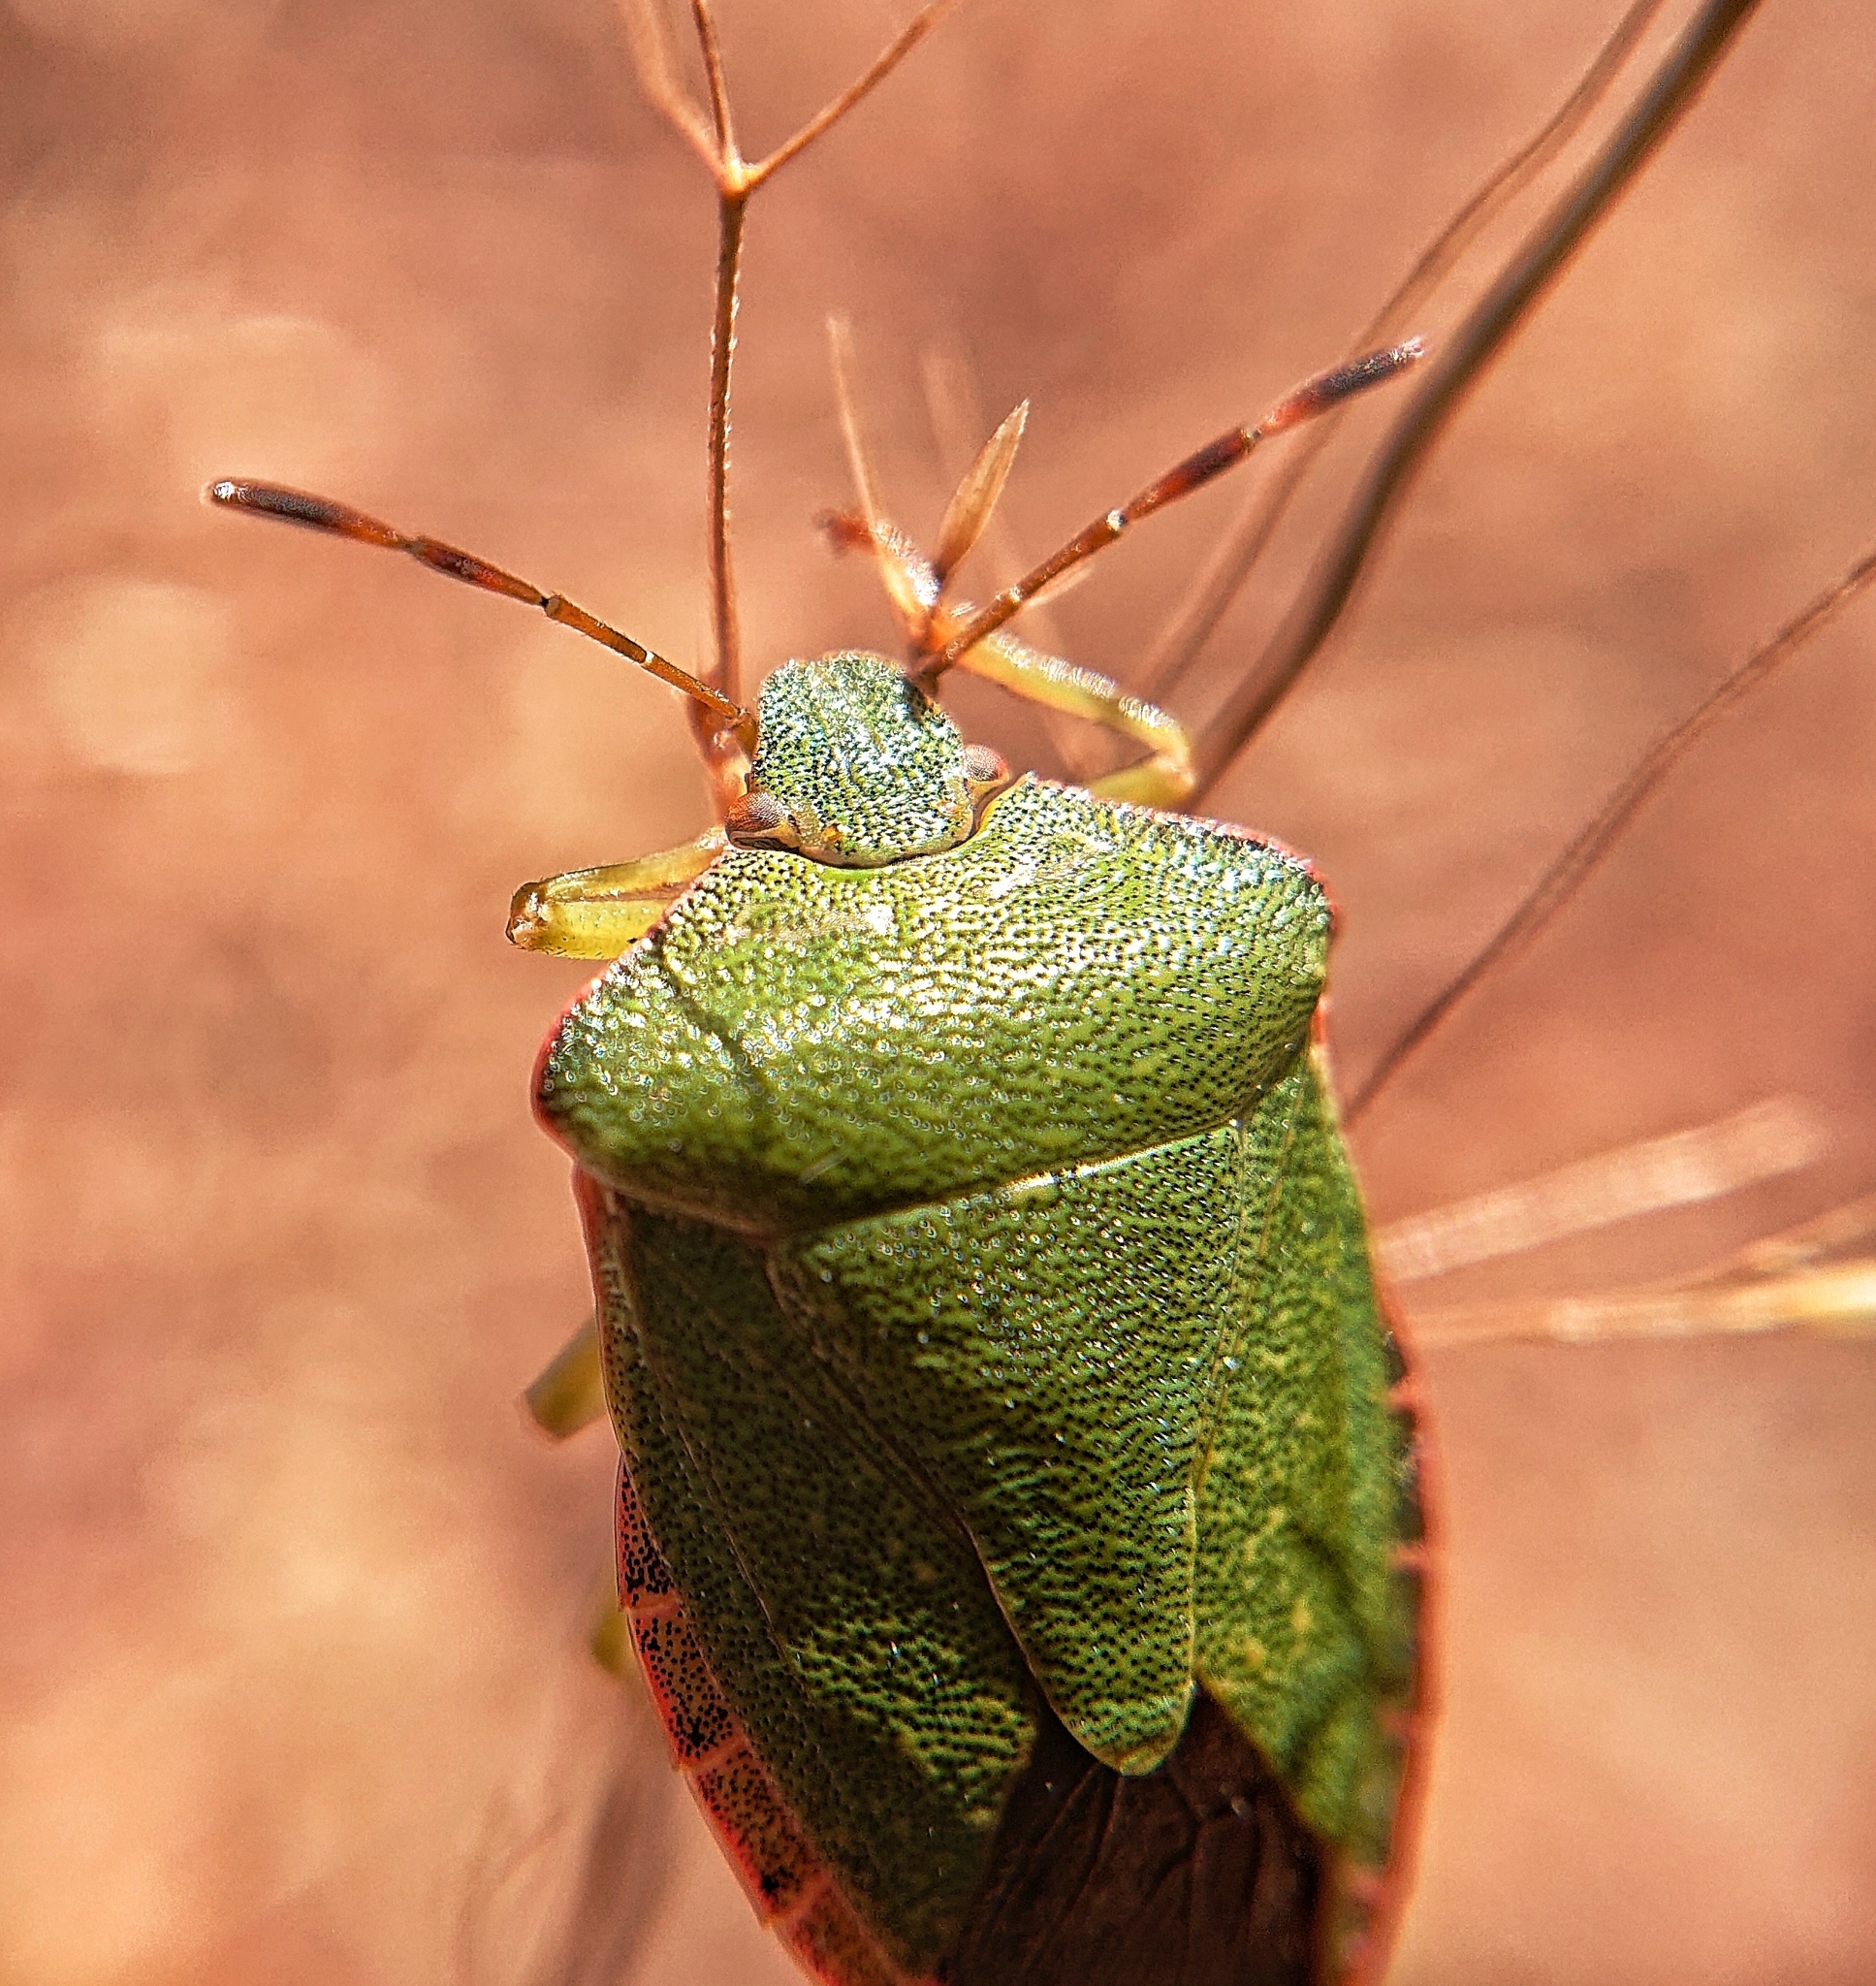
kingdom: Animalia
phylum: Arthropoda
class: Insecta
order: Hemiptera
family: Pentatomidae
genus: Palomena
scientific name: Palomena prasina
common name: Green shieldbug
